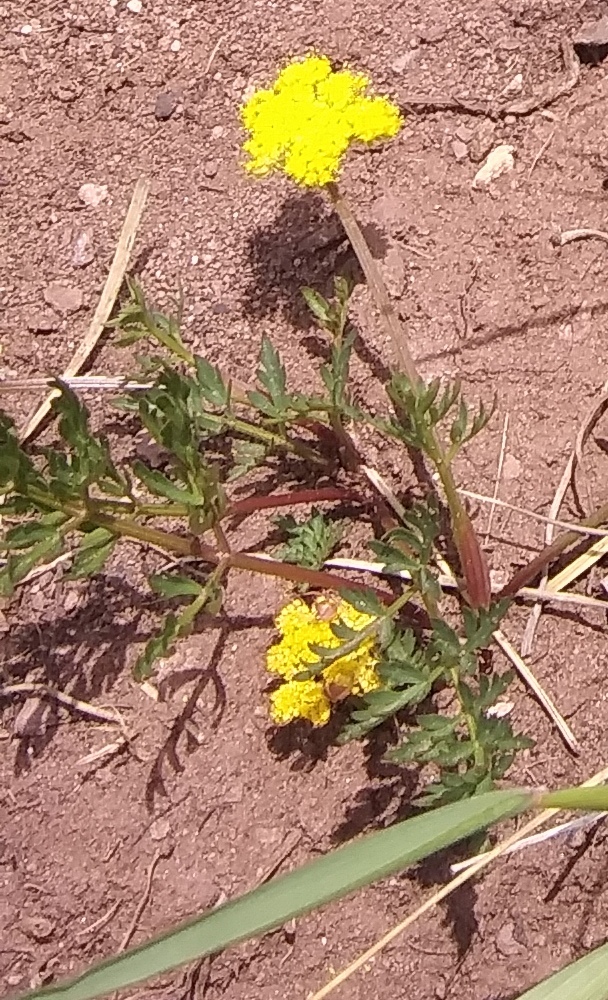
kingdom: Plantae
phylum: Tracheophyta
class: Magnoliopsida
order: Apiales
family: Apiaceae
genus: Cymopterus
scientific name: Cymopterus lemmonii
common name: Lemmon's spring-parsley
